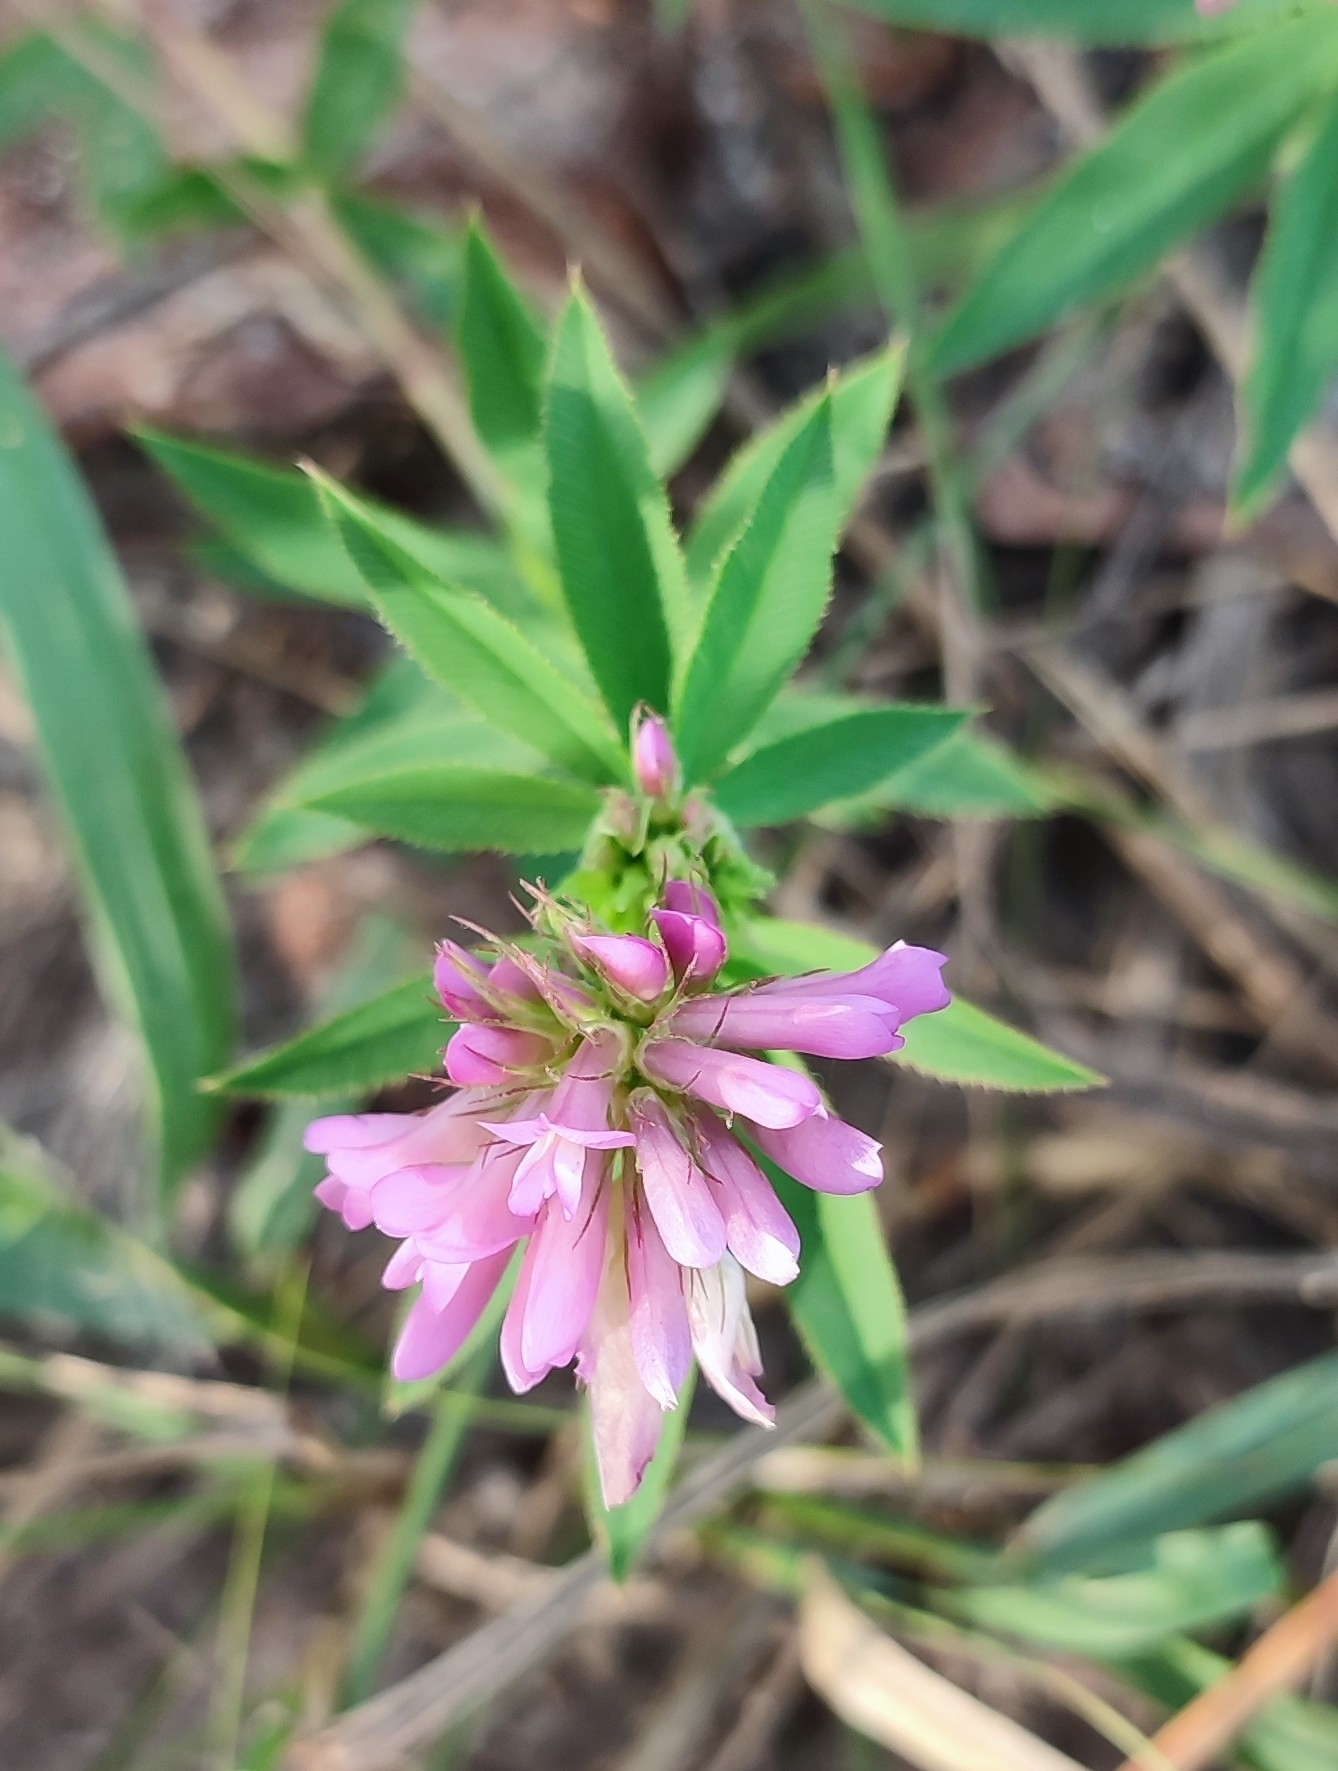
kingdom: Plantae
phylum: Tracheophyta
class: Magnoliopsida
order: Fabales
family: Fabaceae
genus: Trifolium
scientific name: Trifolium lupinaster
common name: Lupine clover
